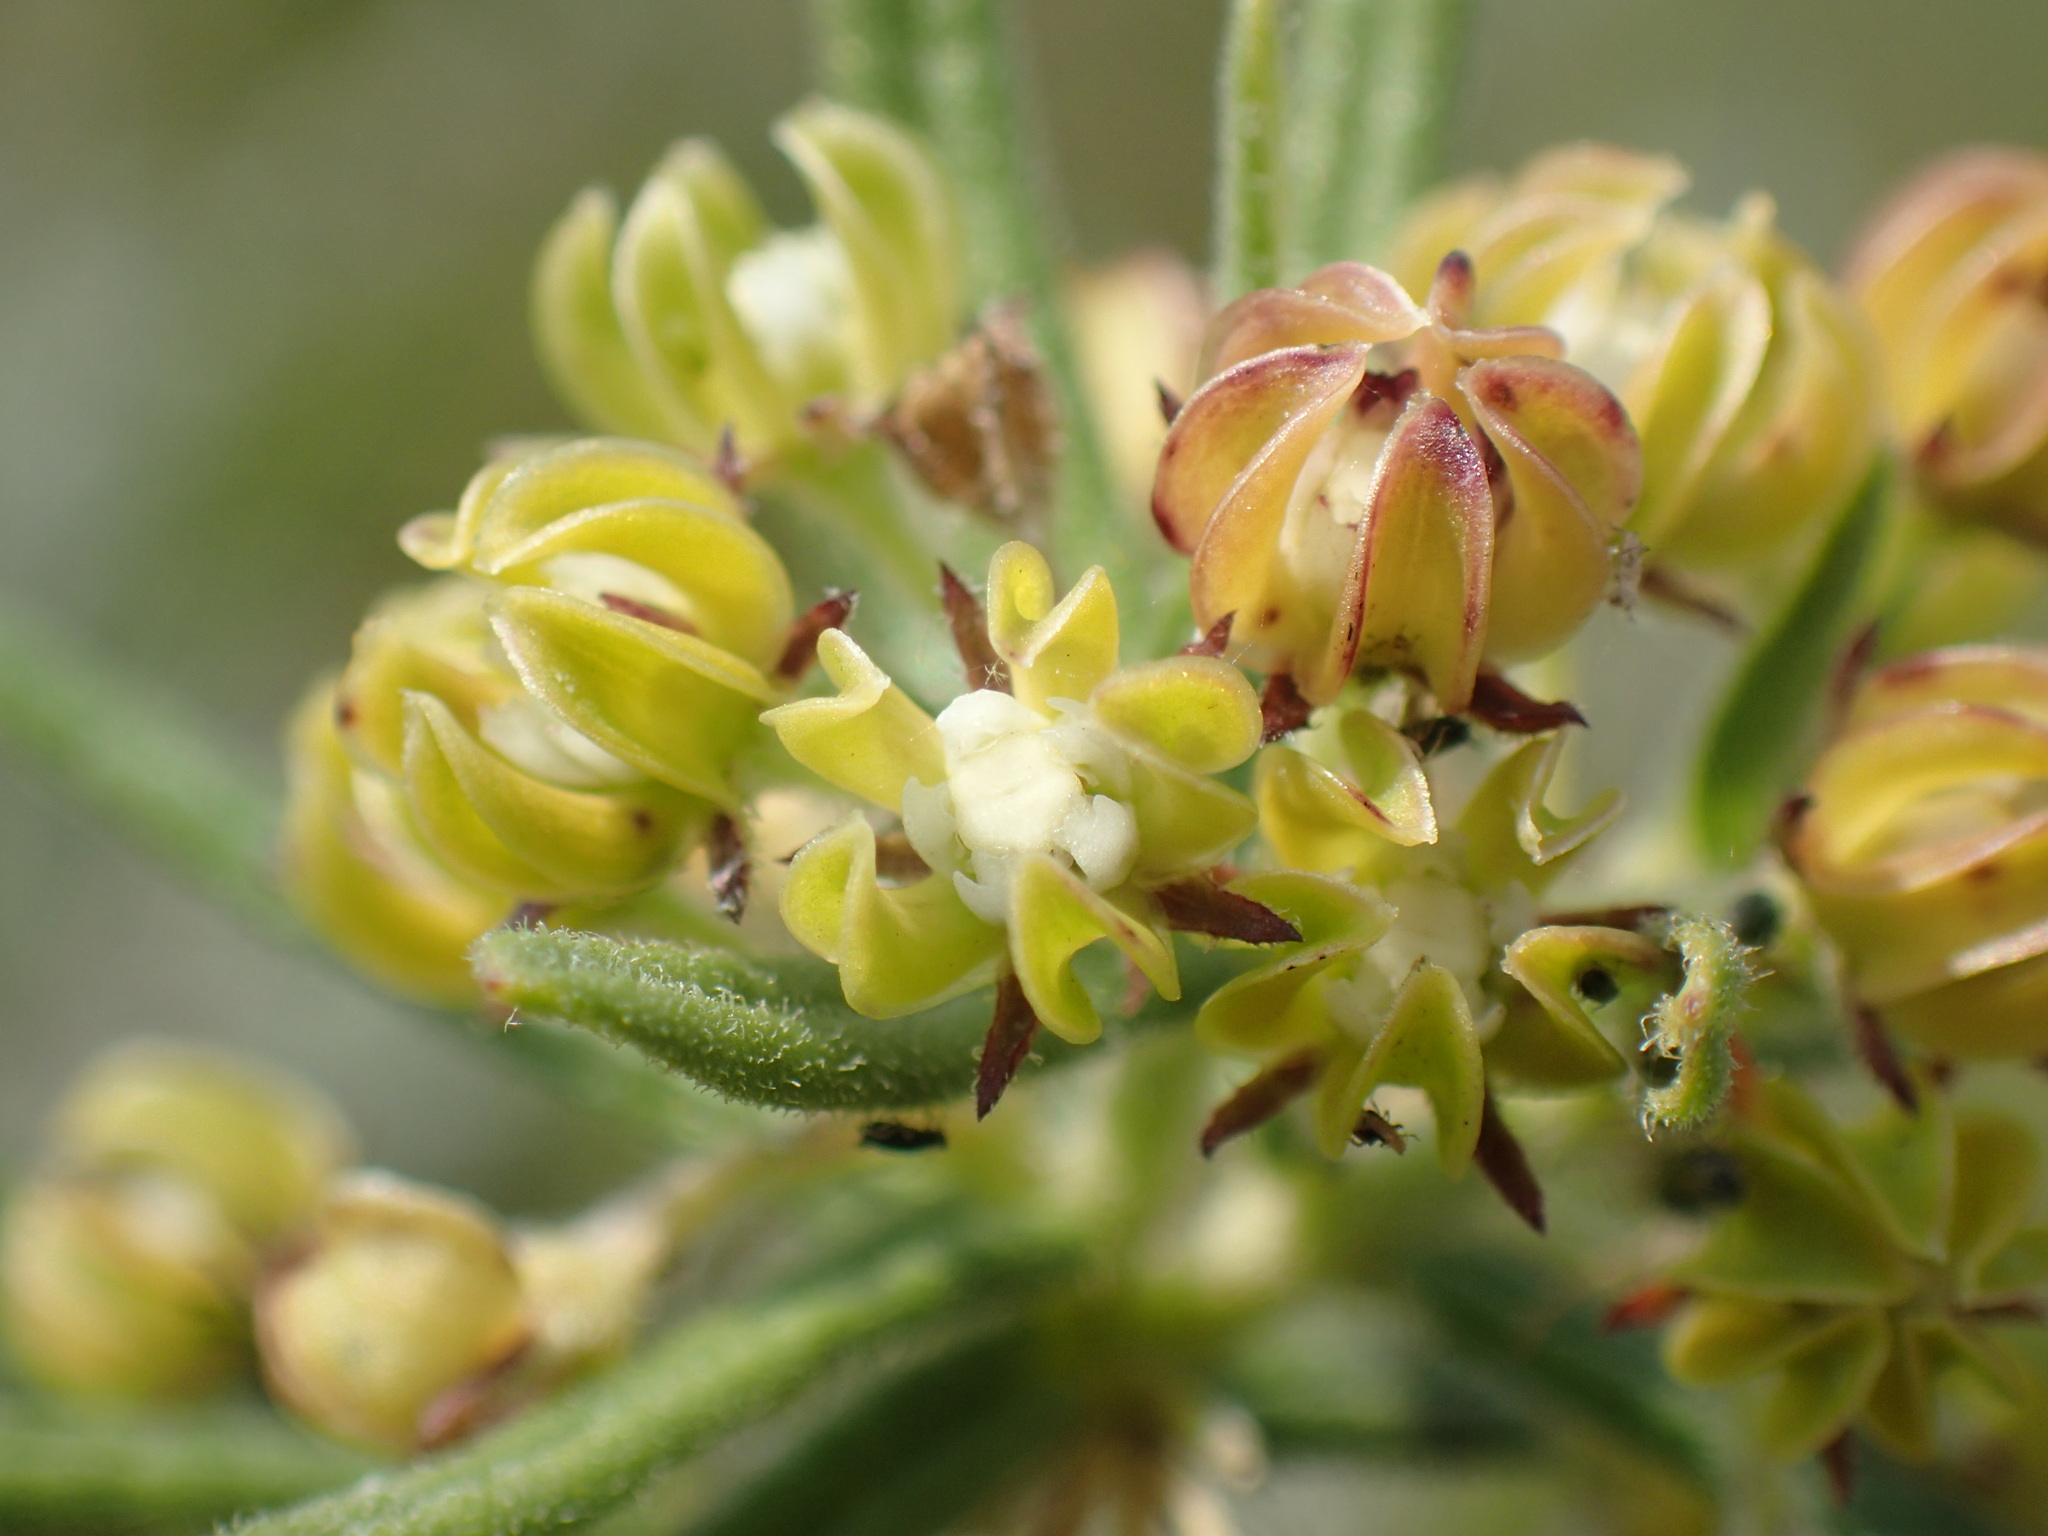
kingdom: Plantae
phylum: Tracheophyta
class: Magnoliopsida
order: Gentianales
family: Apocynaceae
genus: Schizoglossum
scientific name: Schizoglossum bidens
